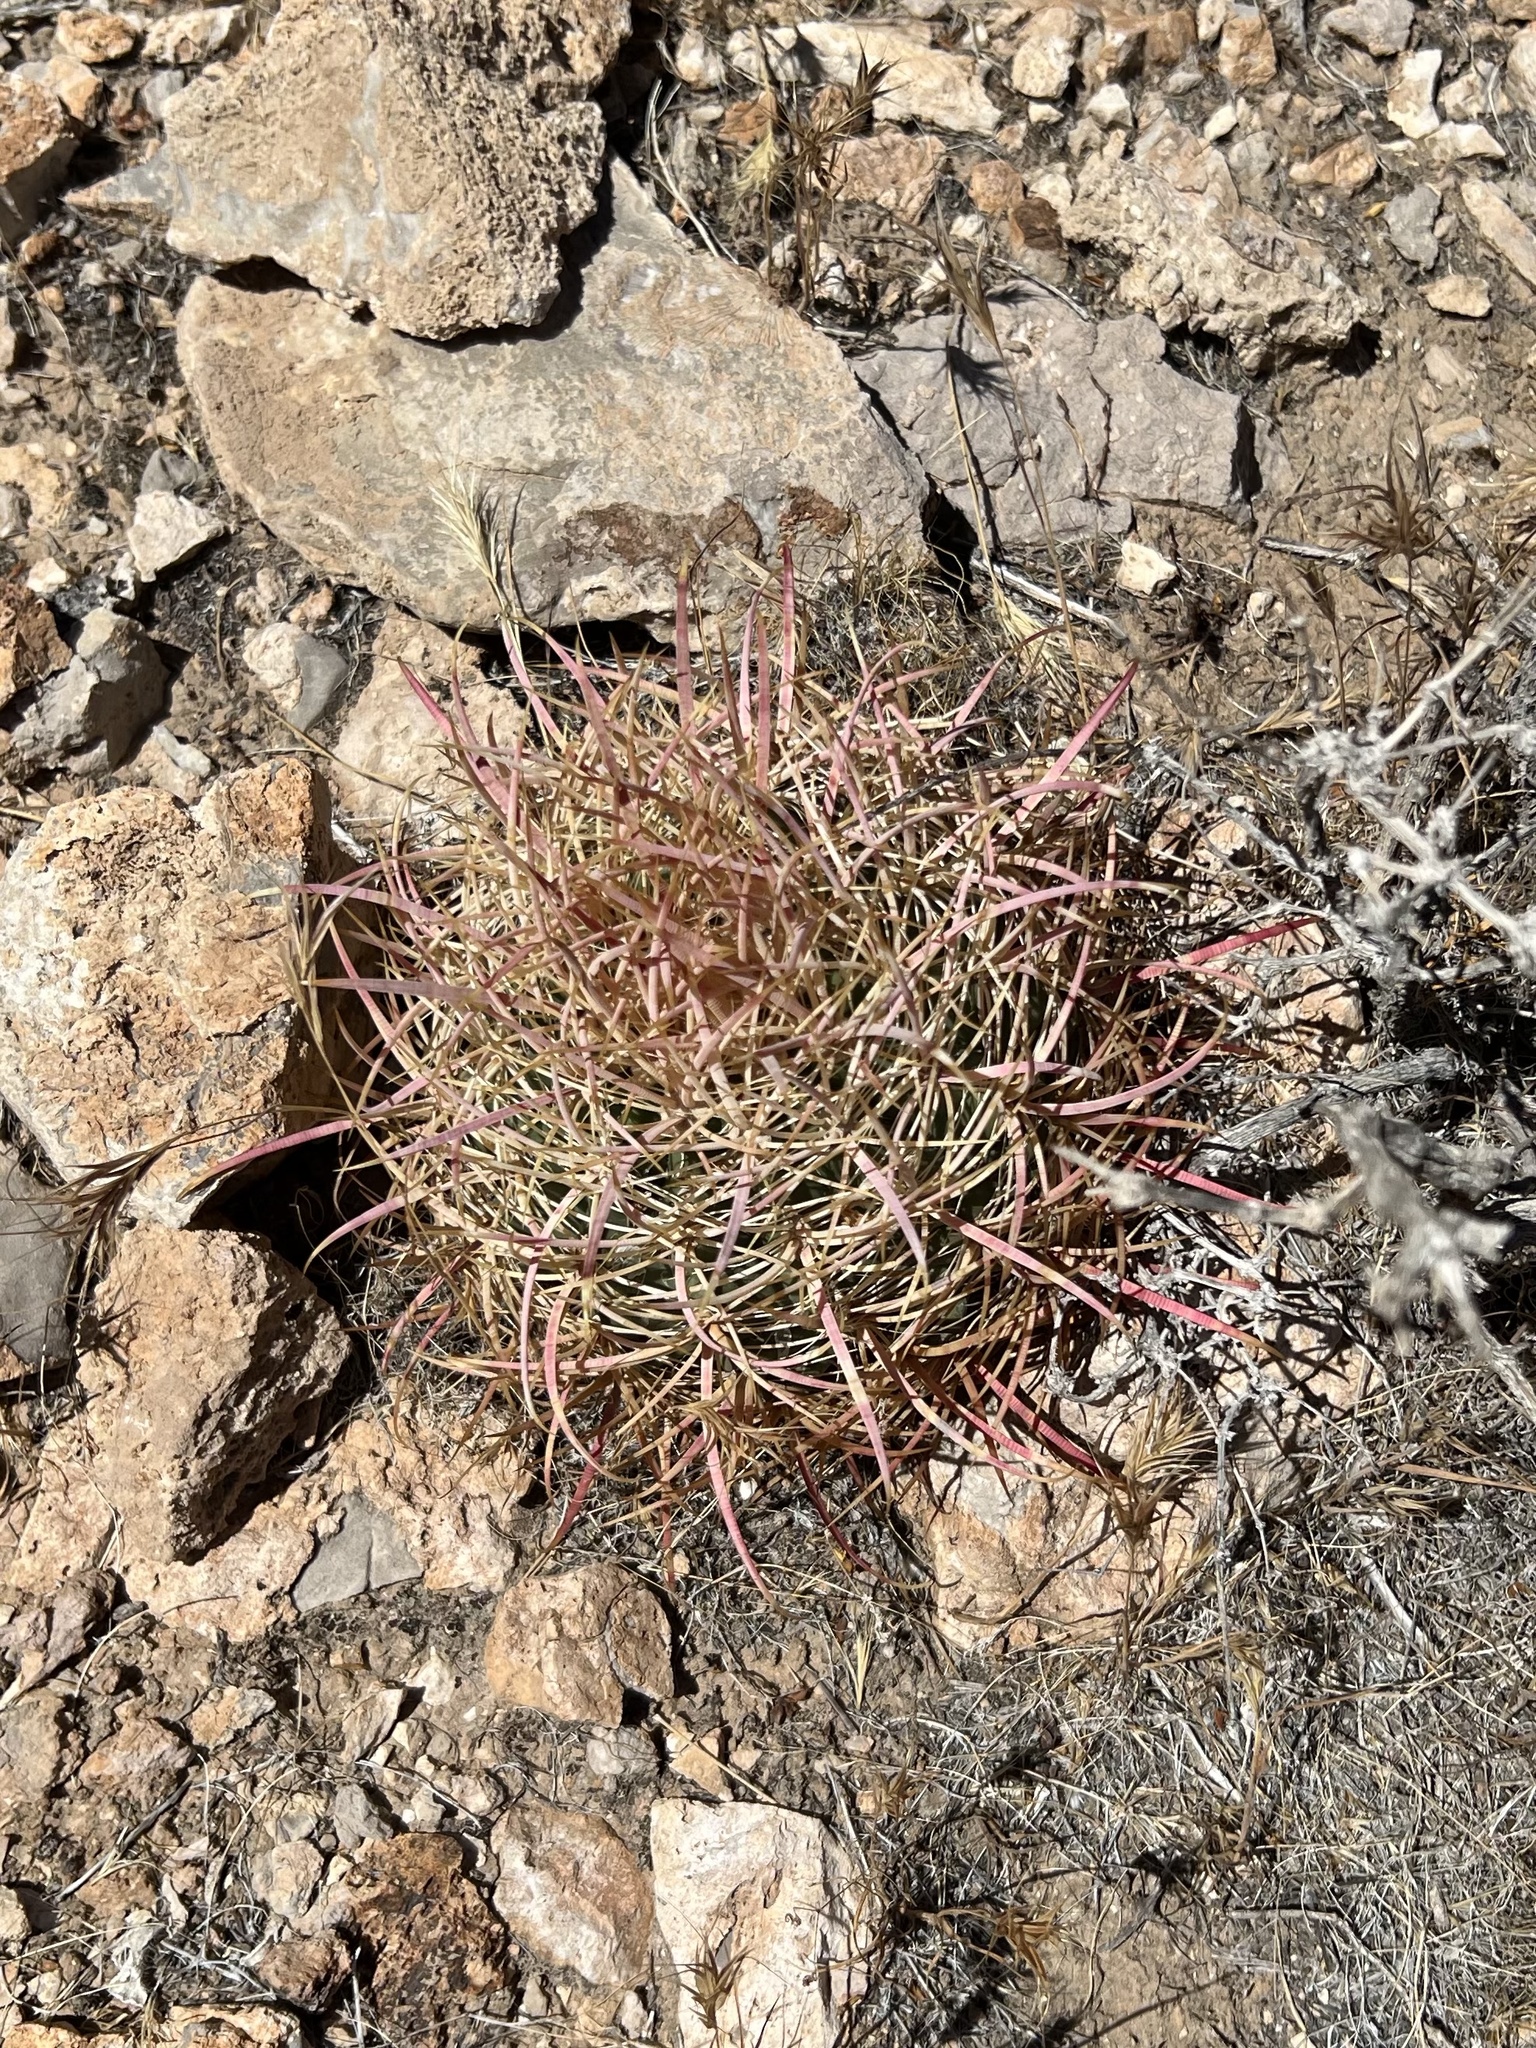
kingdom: Plantae
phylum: Tracheophyta
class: Magnoliopsida
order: Caryophyllales
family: Cactaceae
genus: Ferocactus
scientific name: Ferocactus cylindraceus
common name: California barrel cactus
